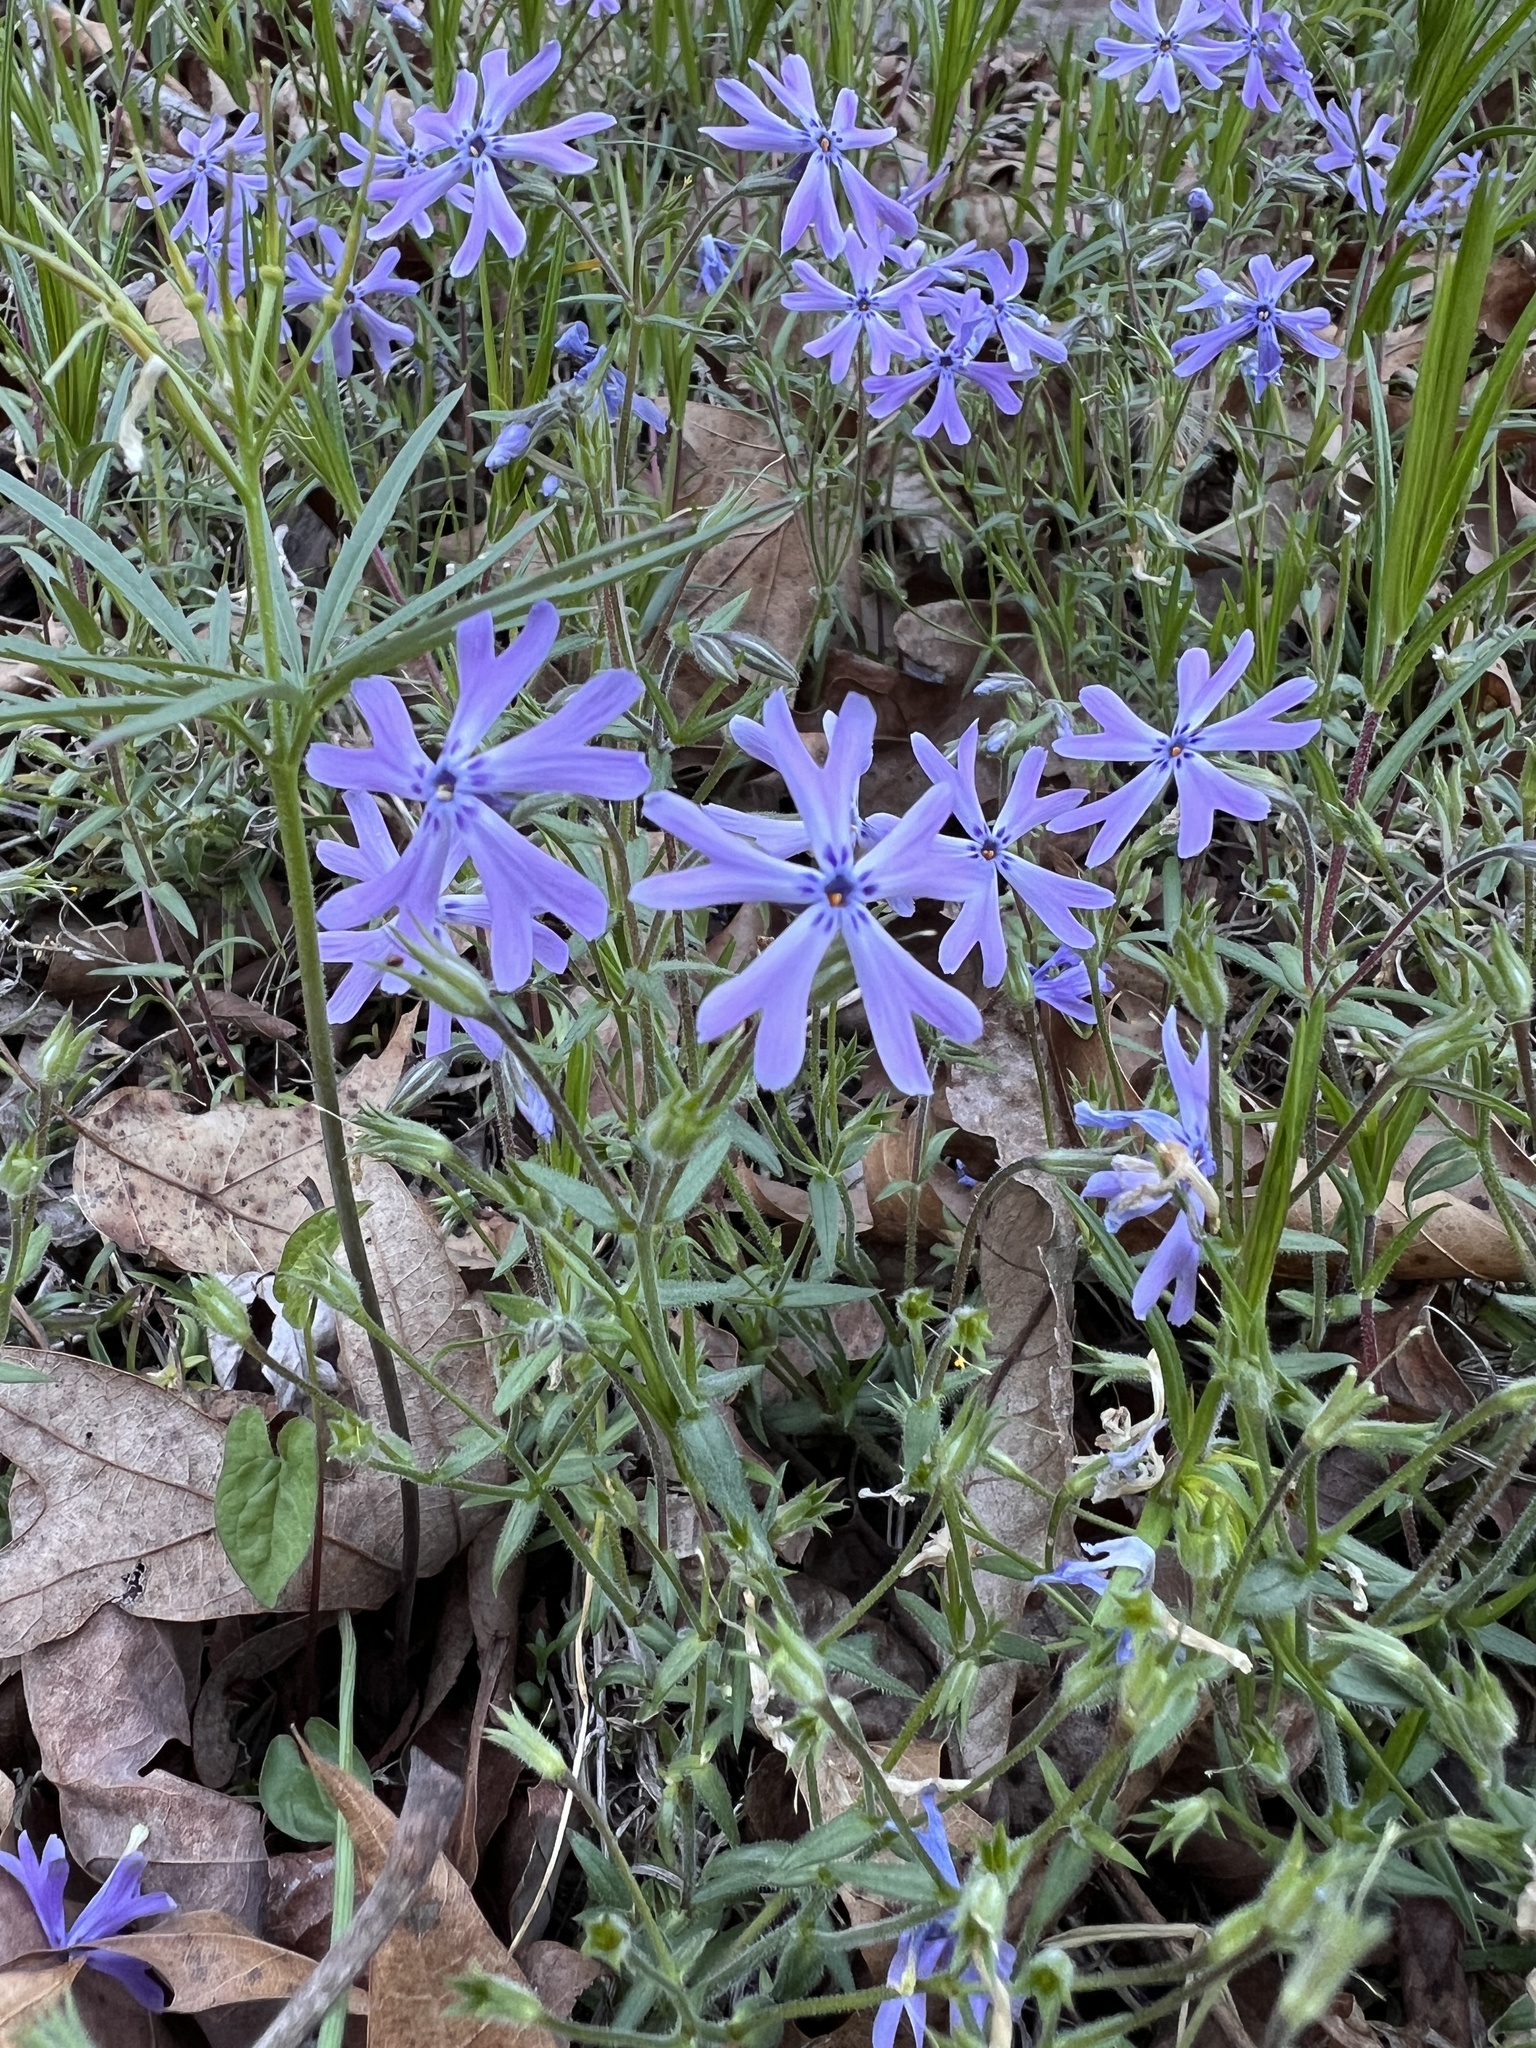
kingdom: Plantae
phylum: Tracheophyta
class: Magnoliopsida
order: Ericales
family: Polemoniaceae
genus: Phlox
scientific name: Phlox bifida
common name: Sand phlox
